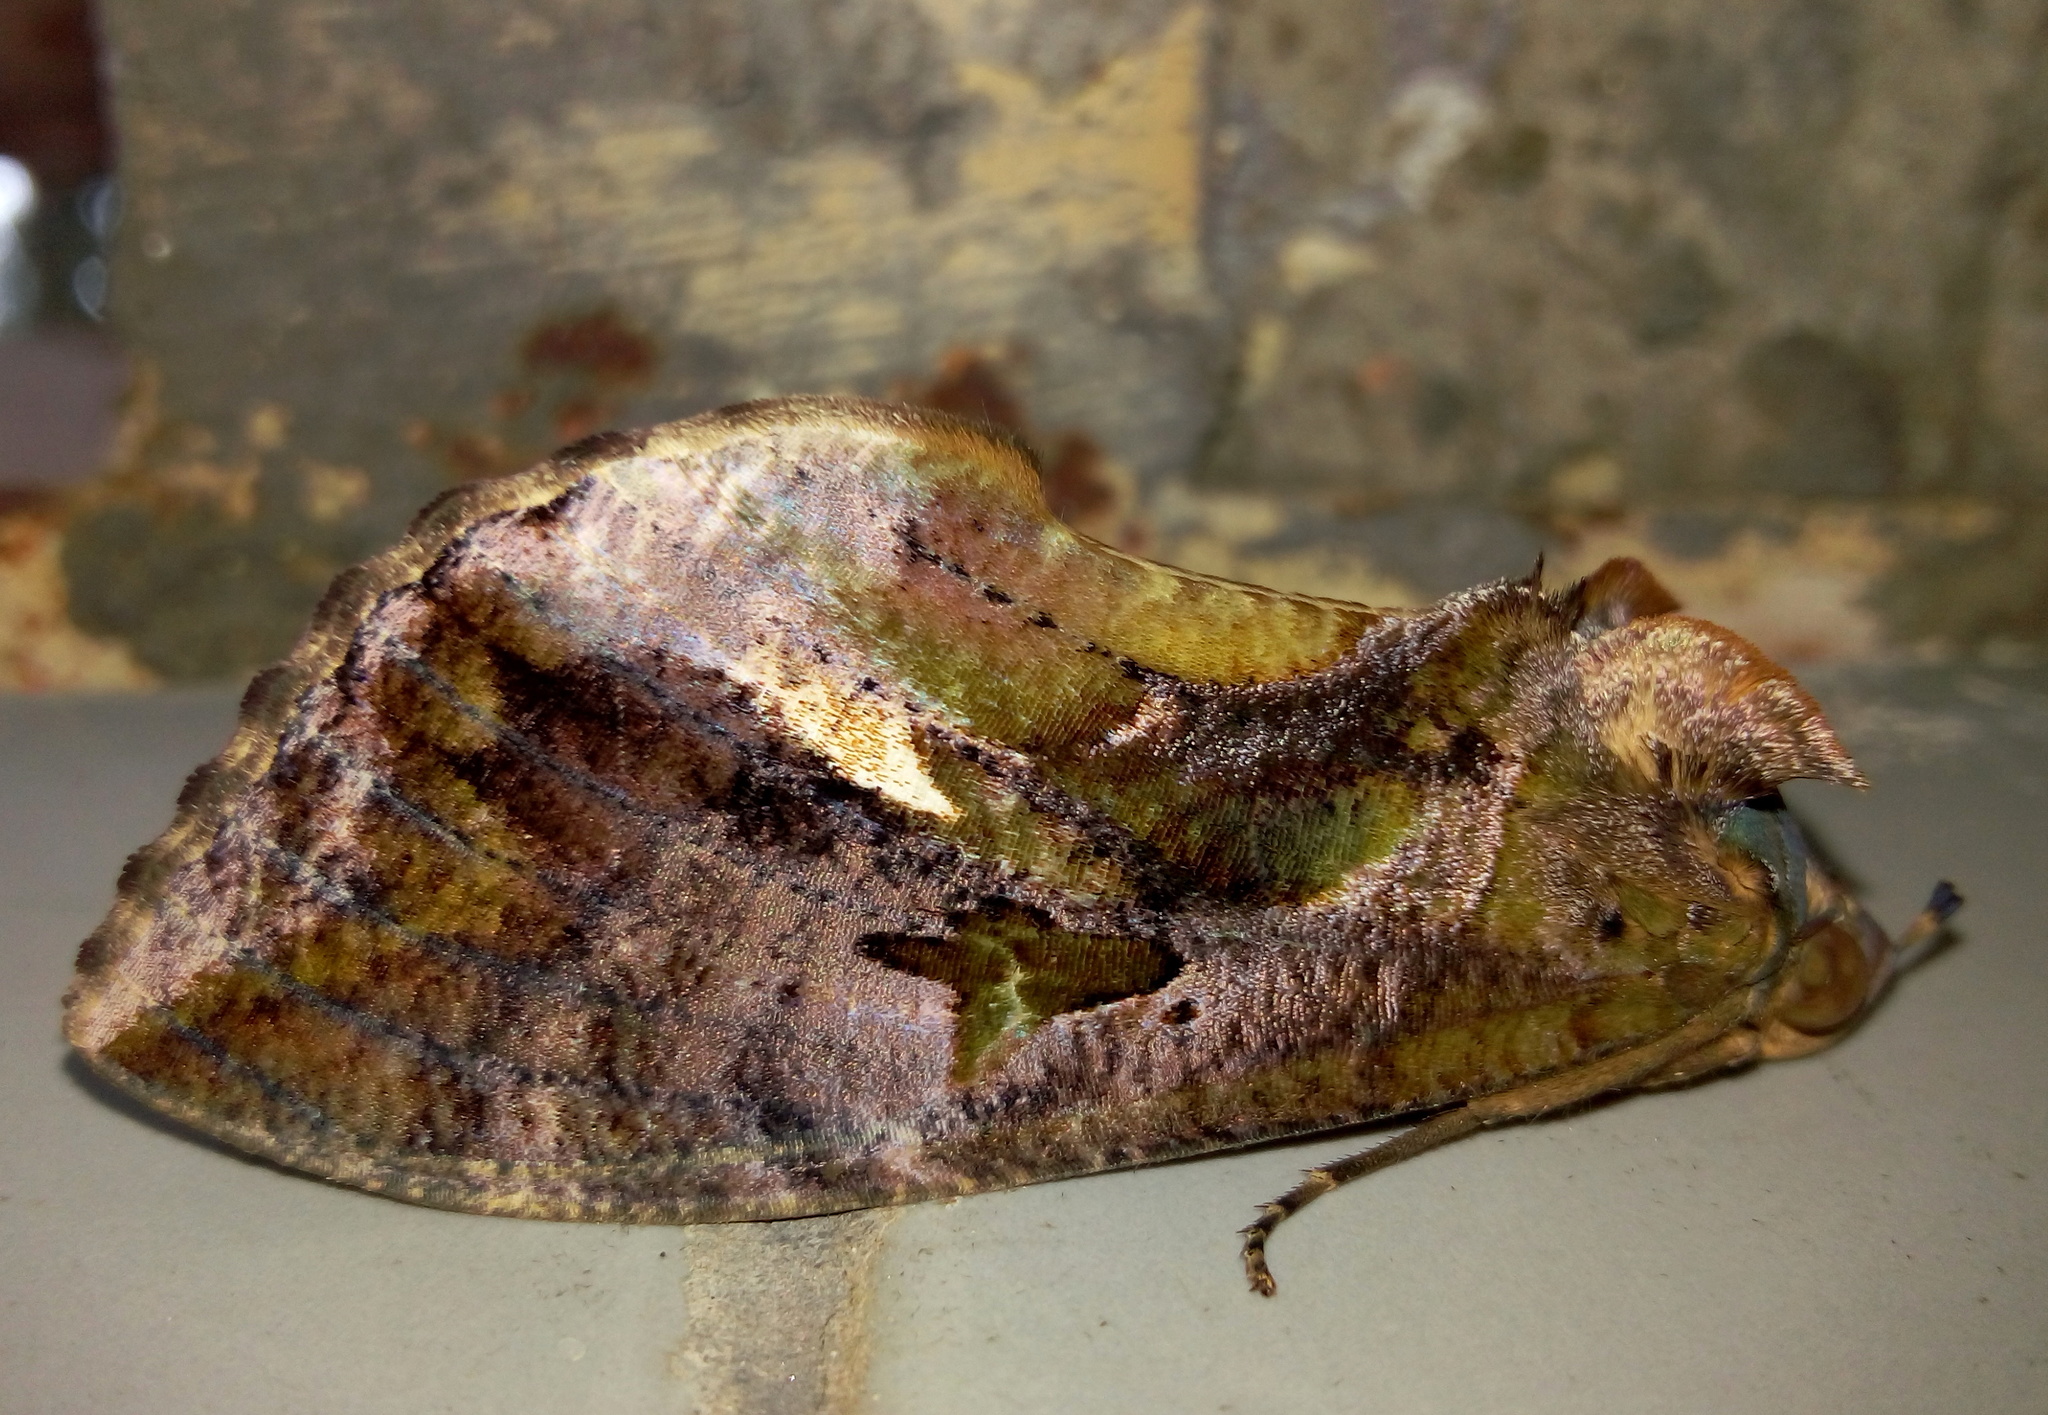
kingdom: Animalia
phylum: Arthropoda
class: Insecta
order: Lepidoptera
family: Erebidae
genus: Eudocima
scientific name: Eudocima phalonia
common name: Wasp
